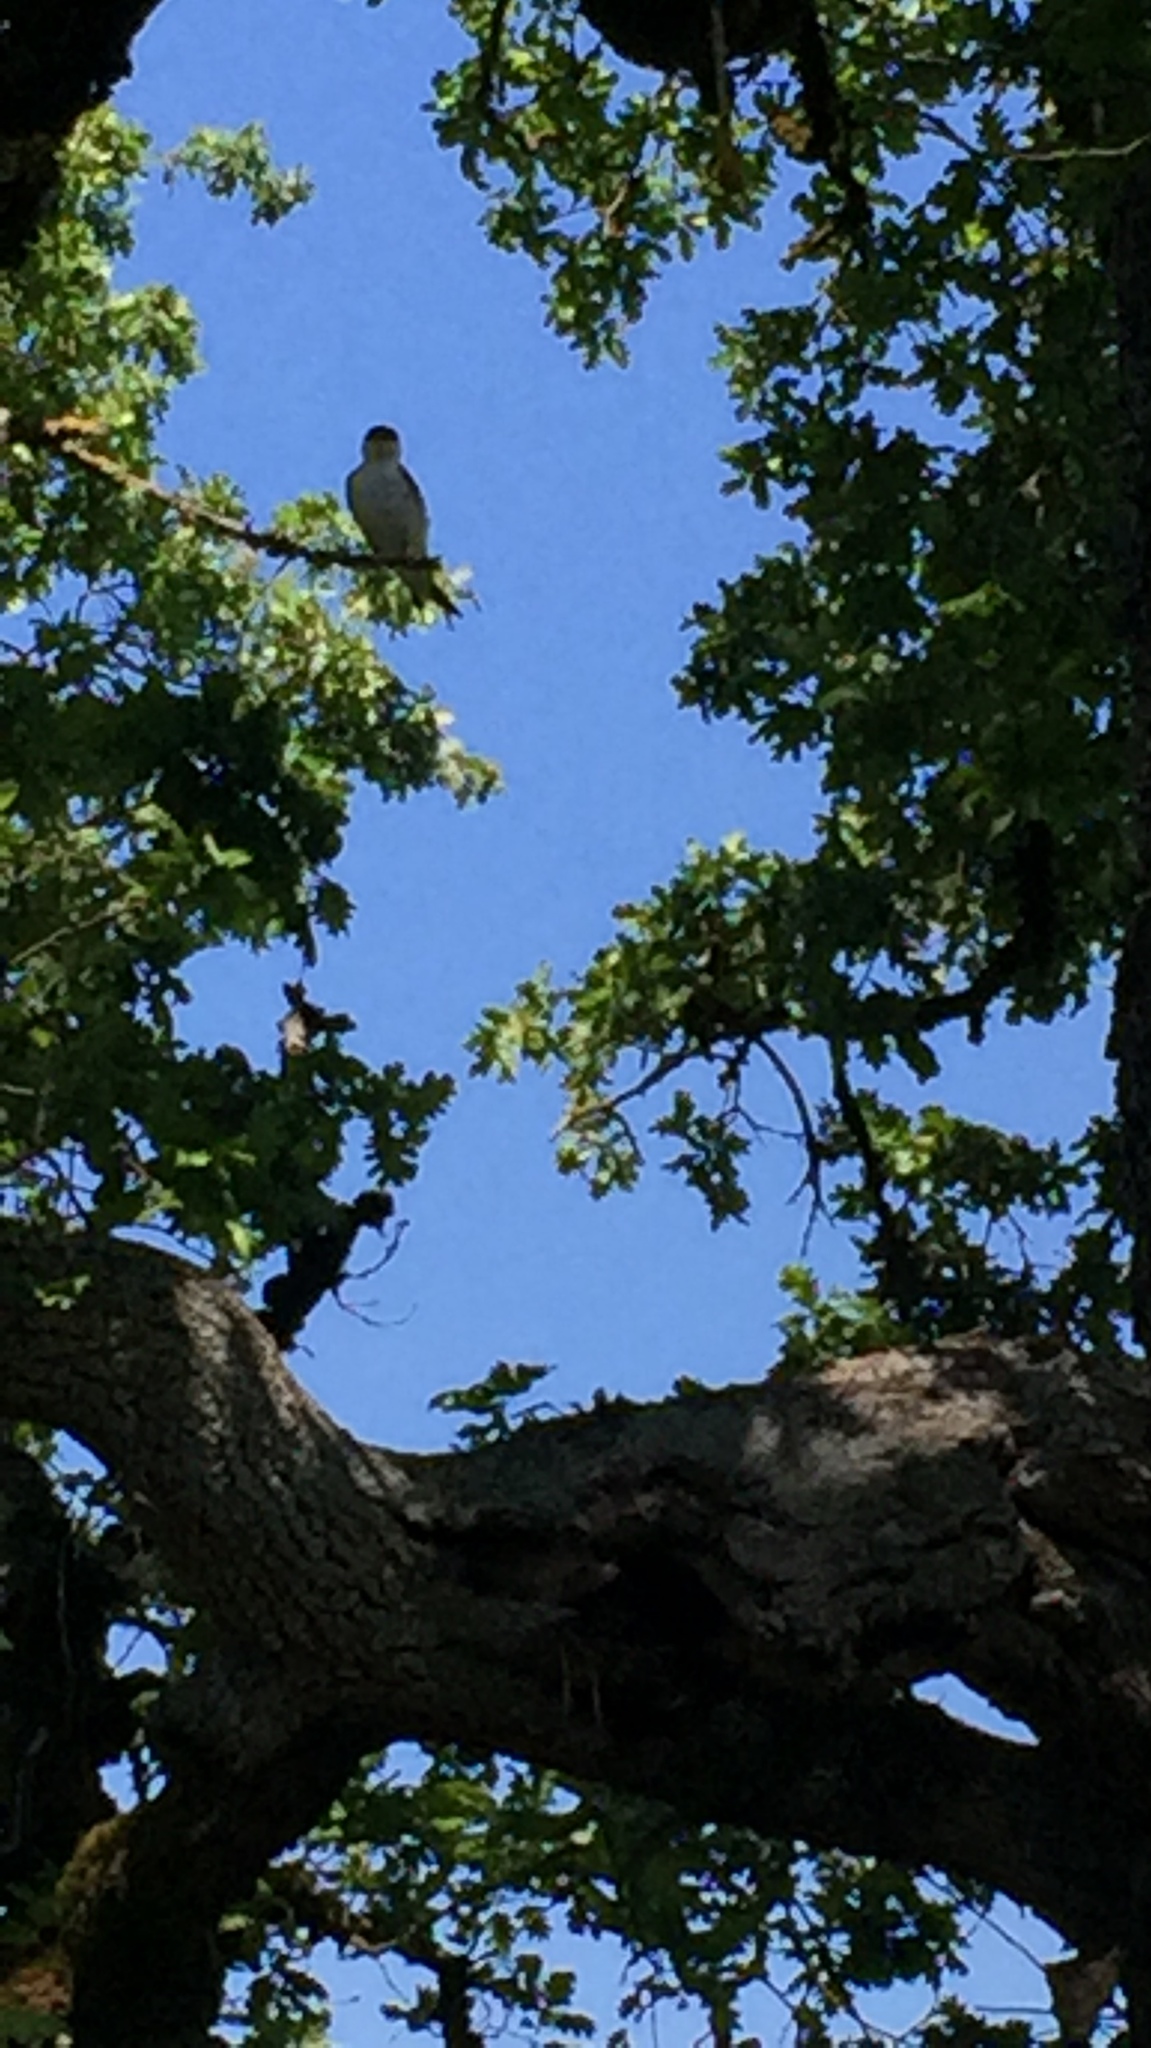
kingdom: Animalia
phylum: Chordata
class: Aves
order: Passeriformes
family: Hirundinidae
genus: Tachycineta
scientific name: Tachycineta thalassina
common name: Violet-green swallow
